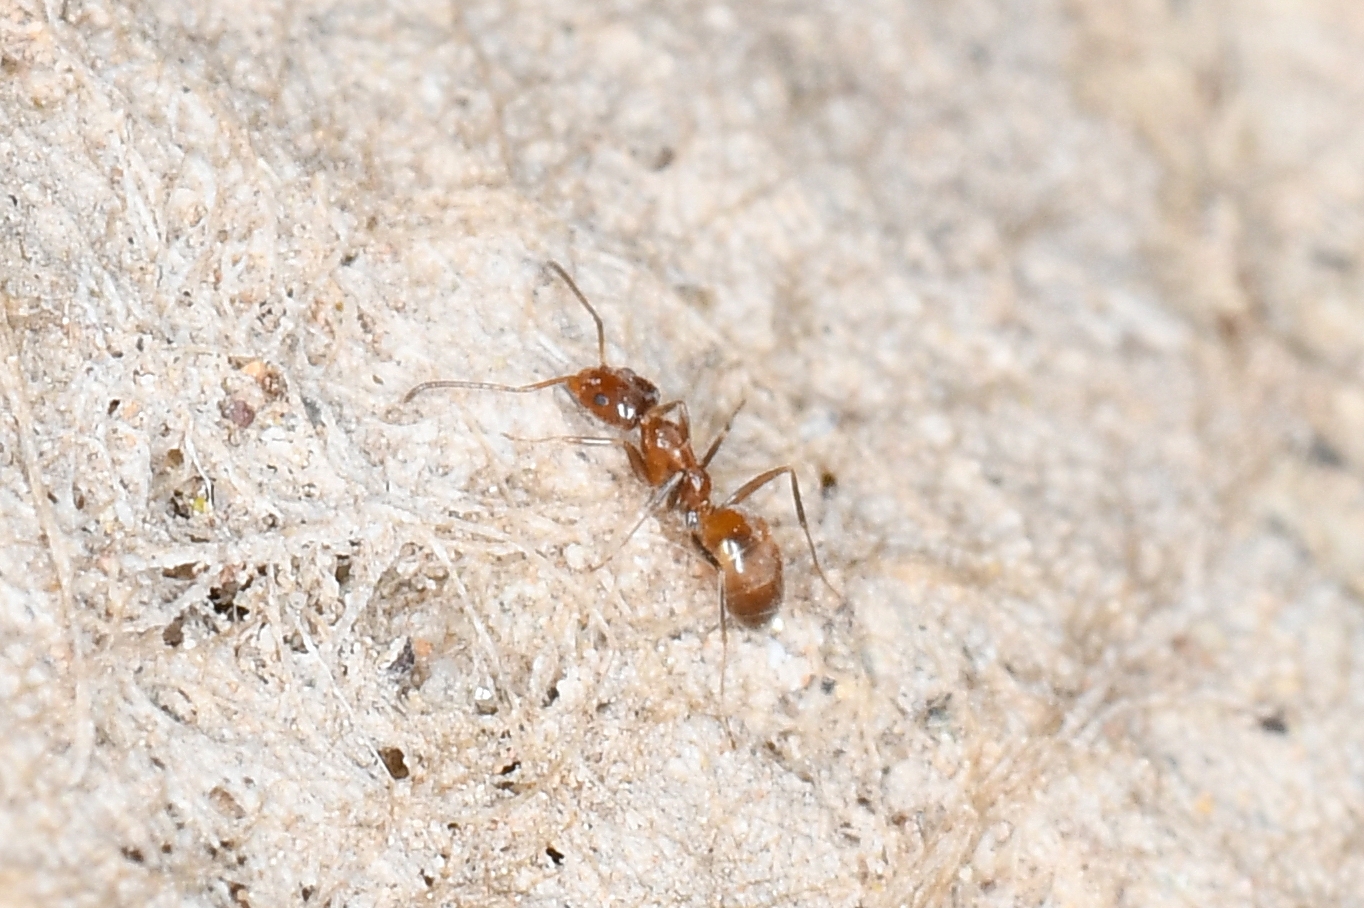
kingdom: Animalia
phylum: Arthropoda
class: Insecta
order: Hymenoptera
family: Formicidae
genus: Forelius
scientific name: Forelius
